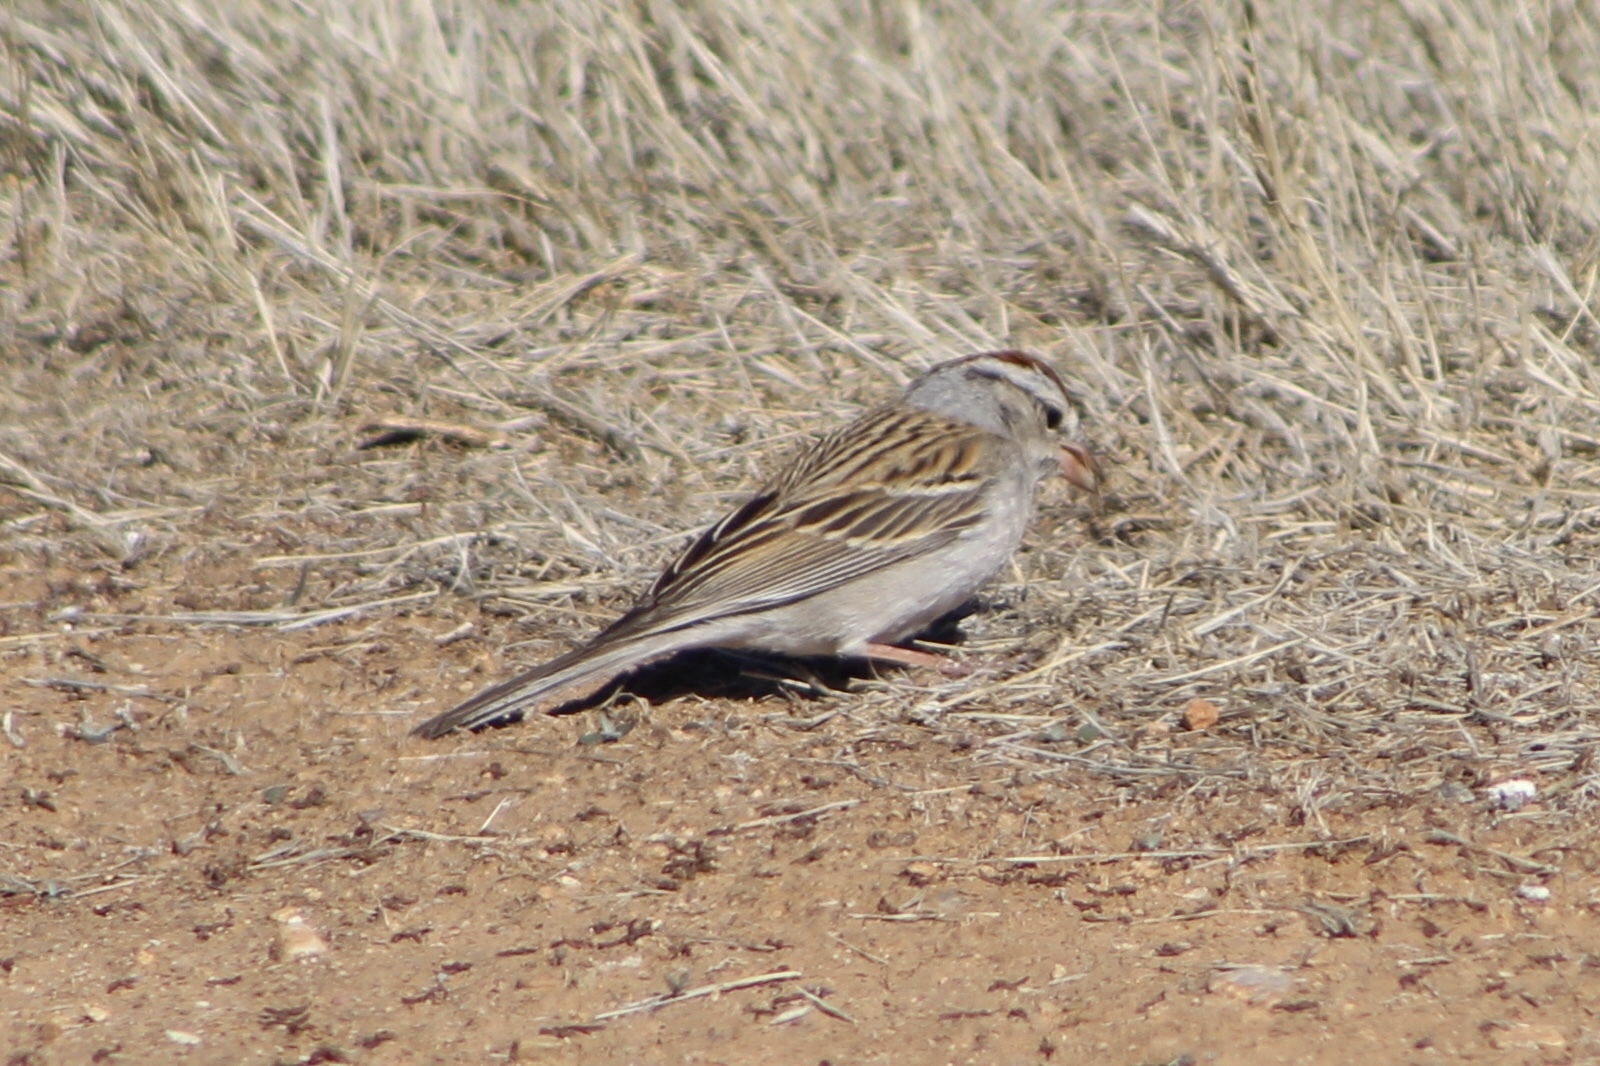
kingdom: Animalia
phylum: Chordata
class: Aves
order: Passeriformes
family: Passerellidae
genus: Spizella
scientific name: Spizella passerina
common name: Chipping sparrow
